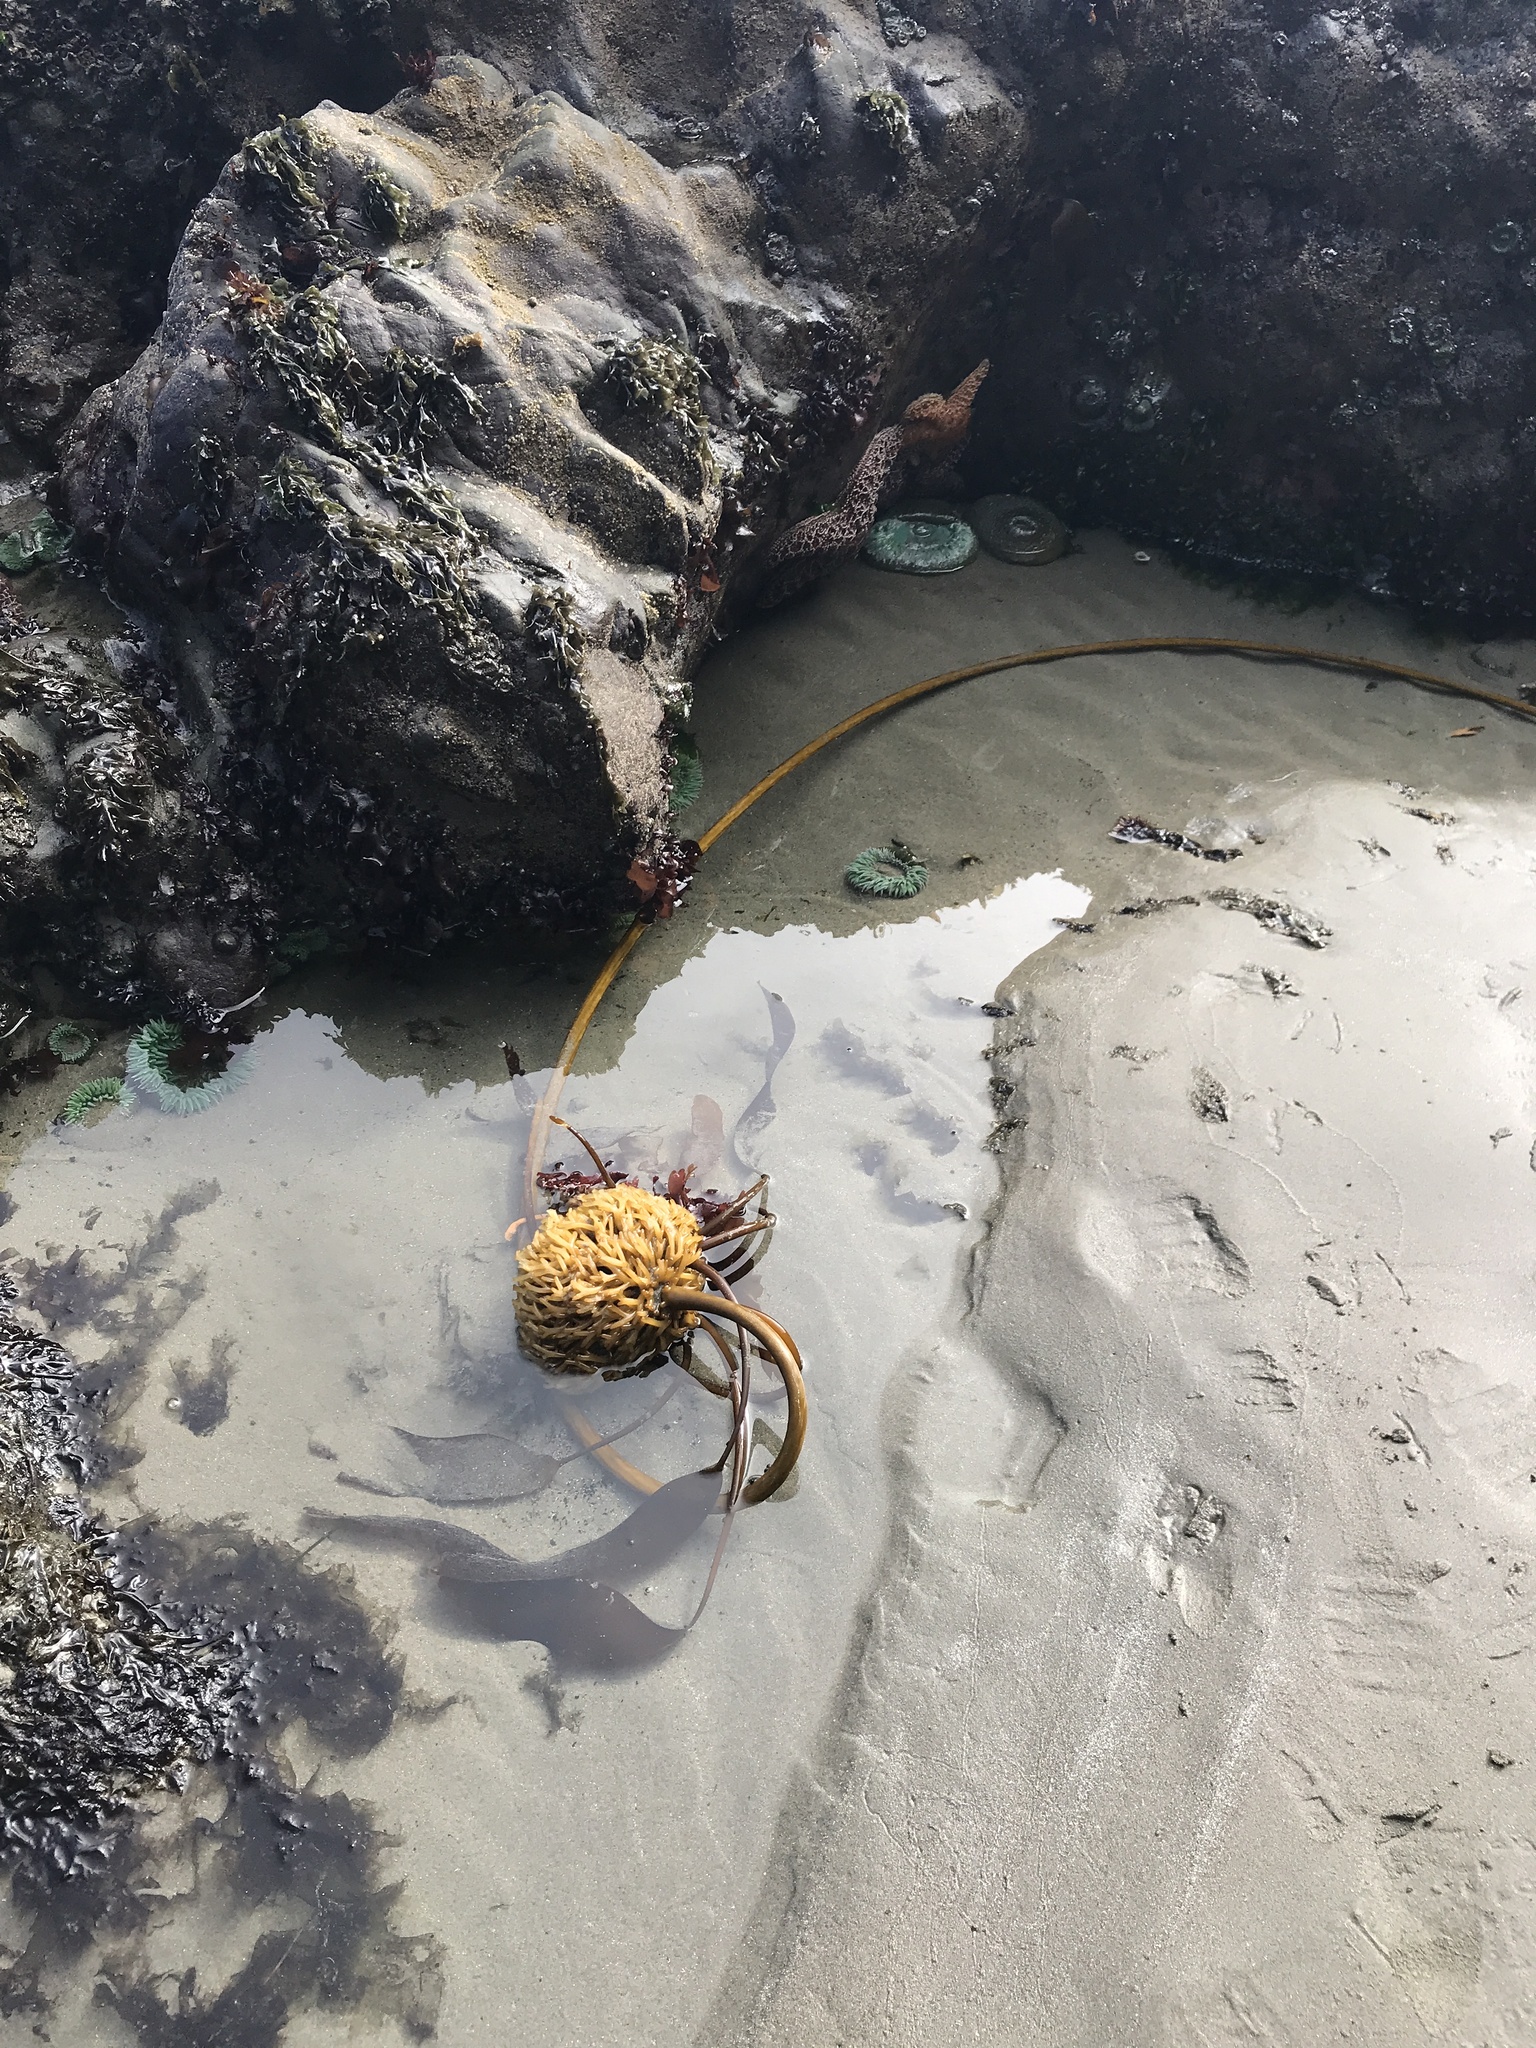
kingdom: Chromista
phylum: Ochrophyta
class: Phaeophyceae
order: Laminariales
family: Laminariaceae
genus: Nereocystis
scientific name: Nereocystis luetkeana
